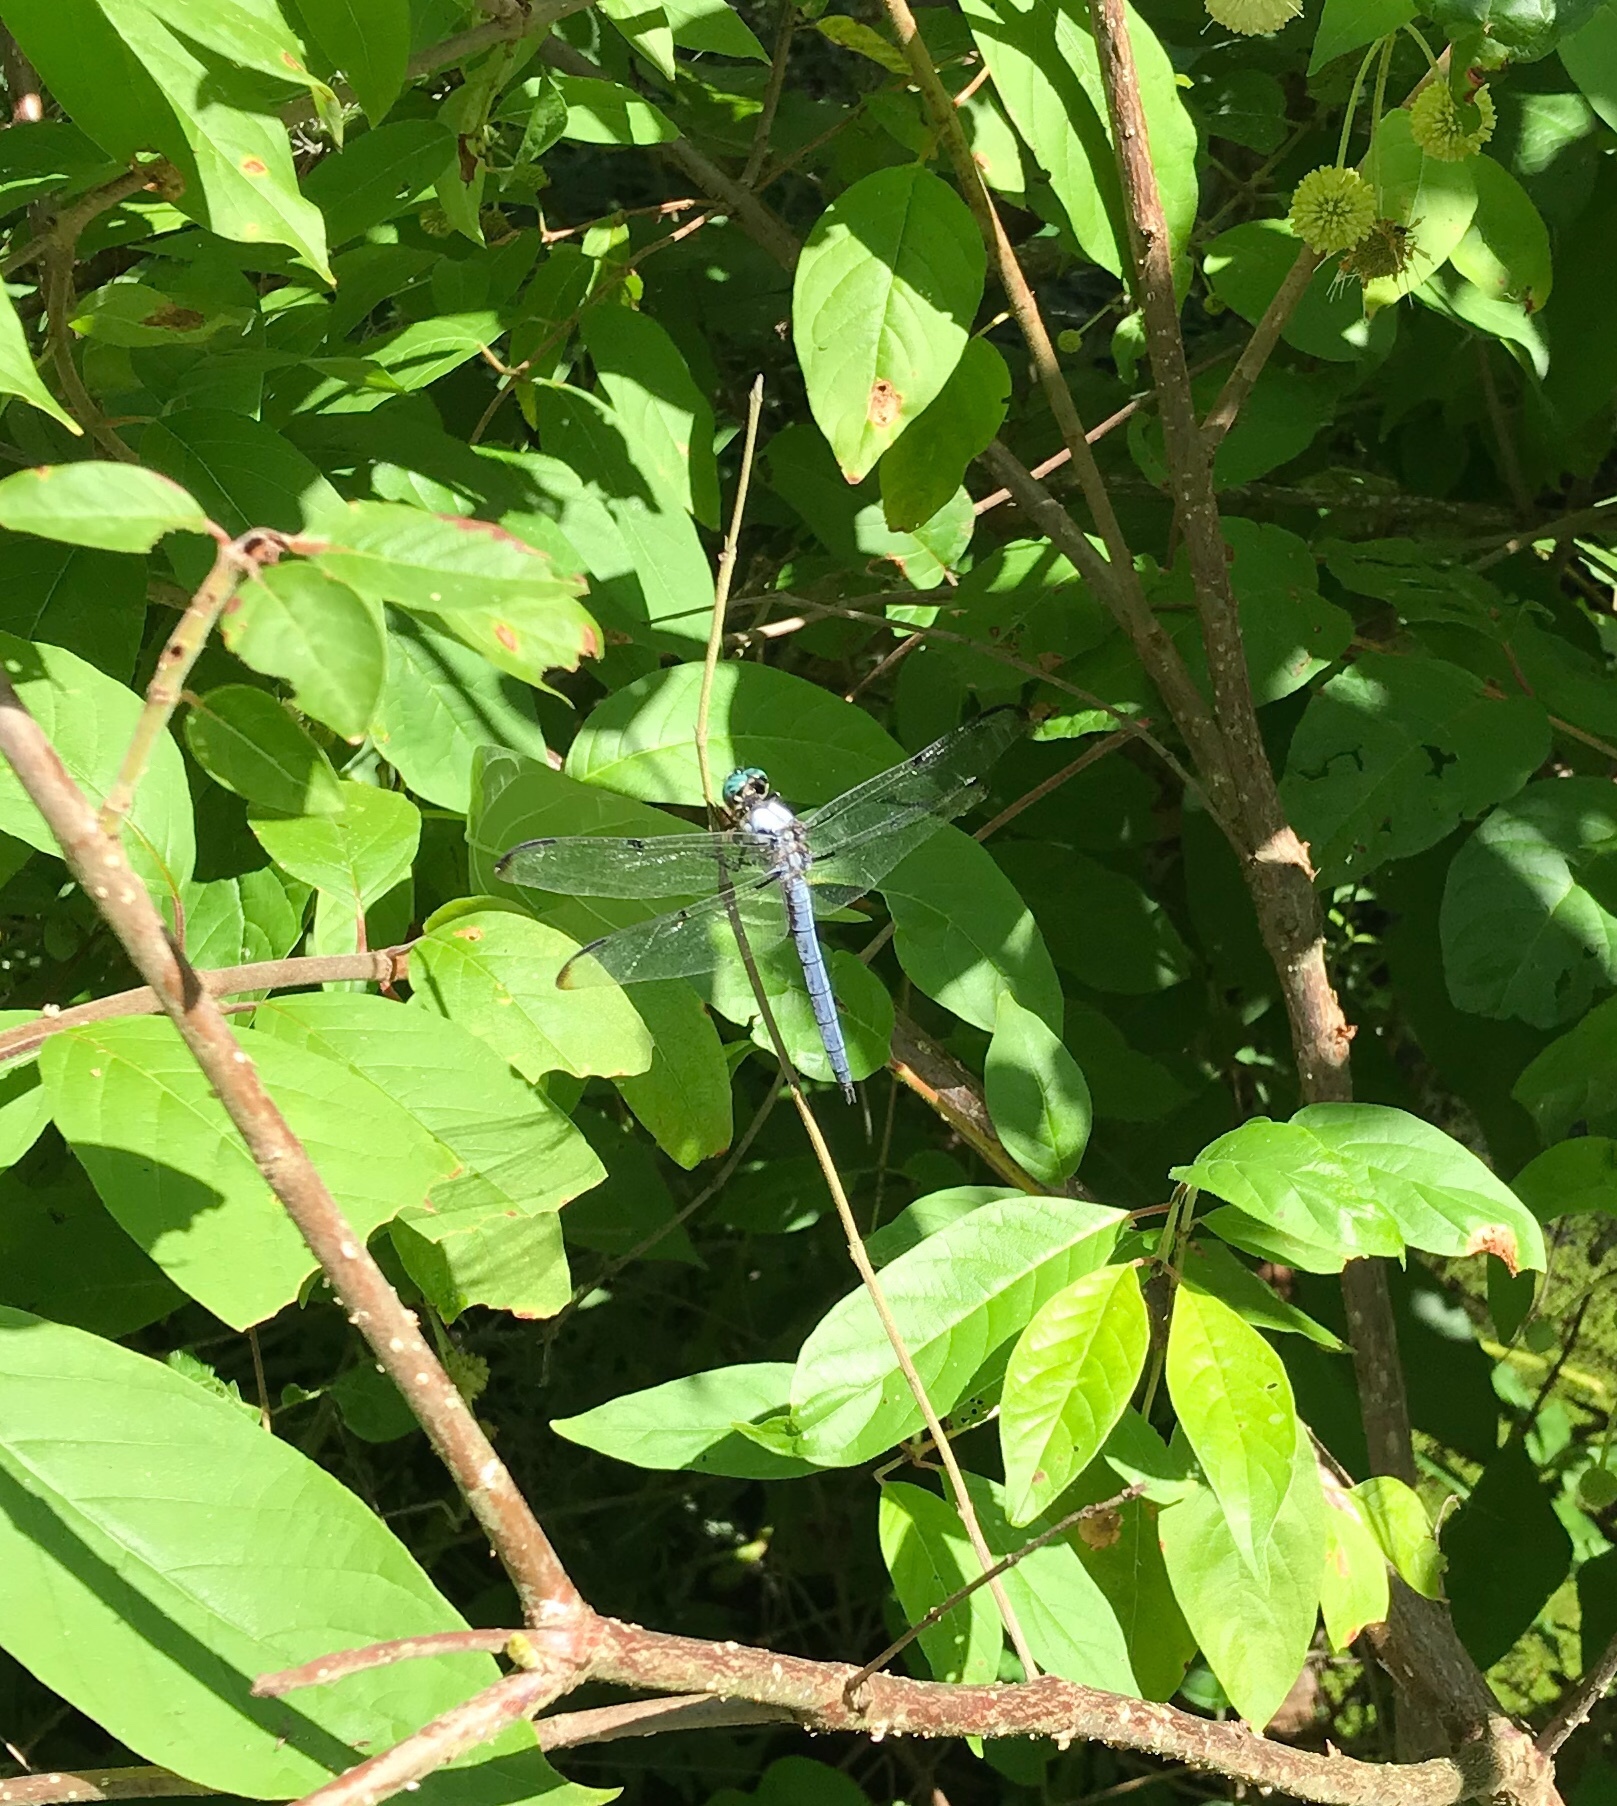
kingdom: Animalia
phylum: Arthropoda
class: Insecta
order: Odonata
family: Libellulidae
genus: Libellula
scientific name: Libellula vibrans
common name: Great blue skimmer
